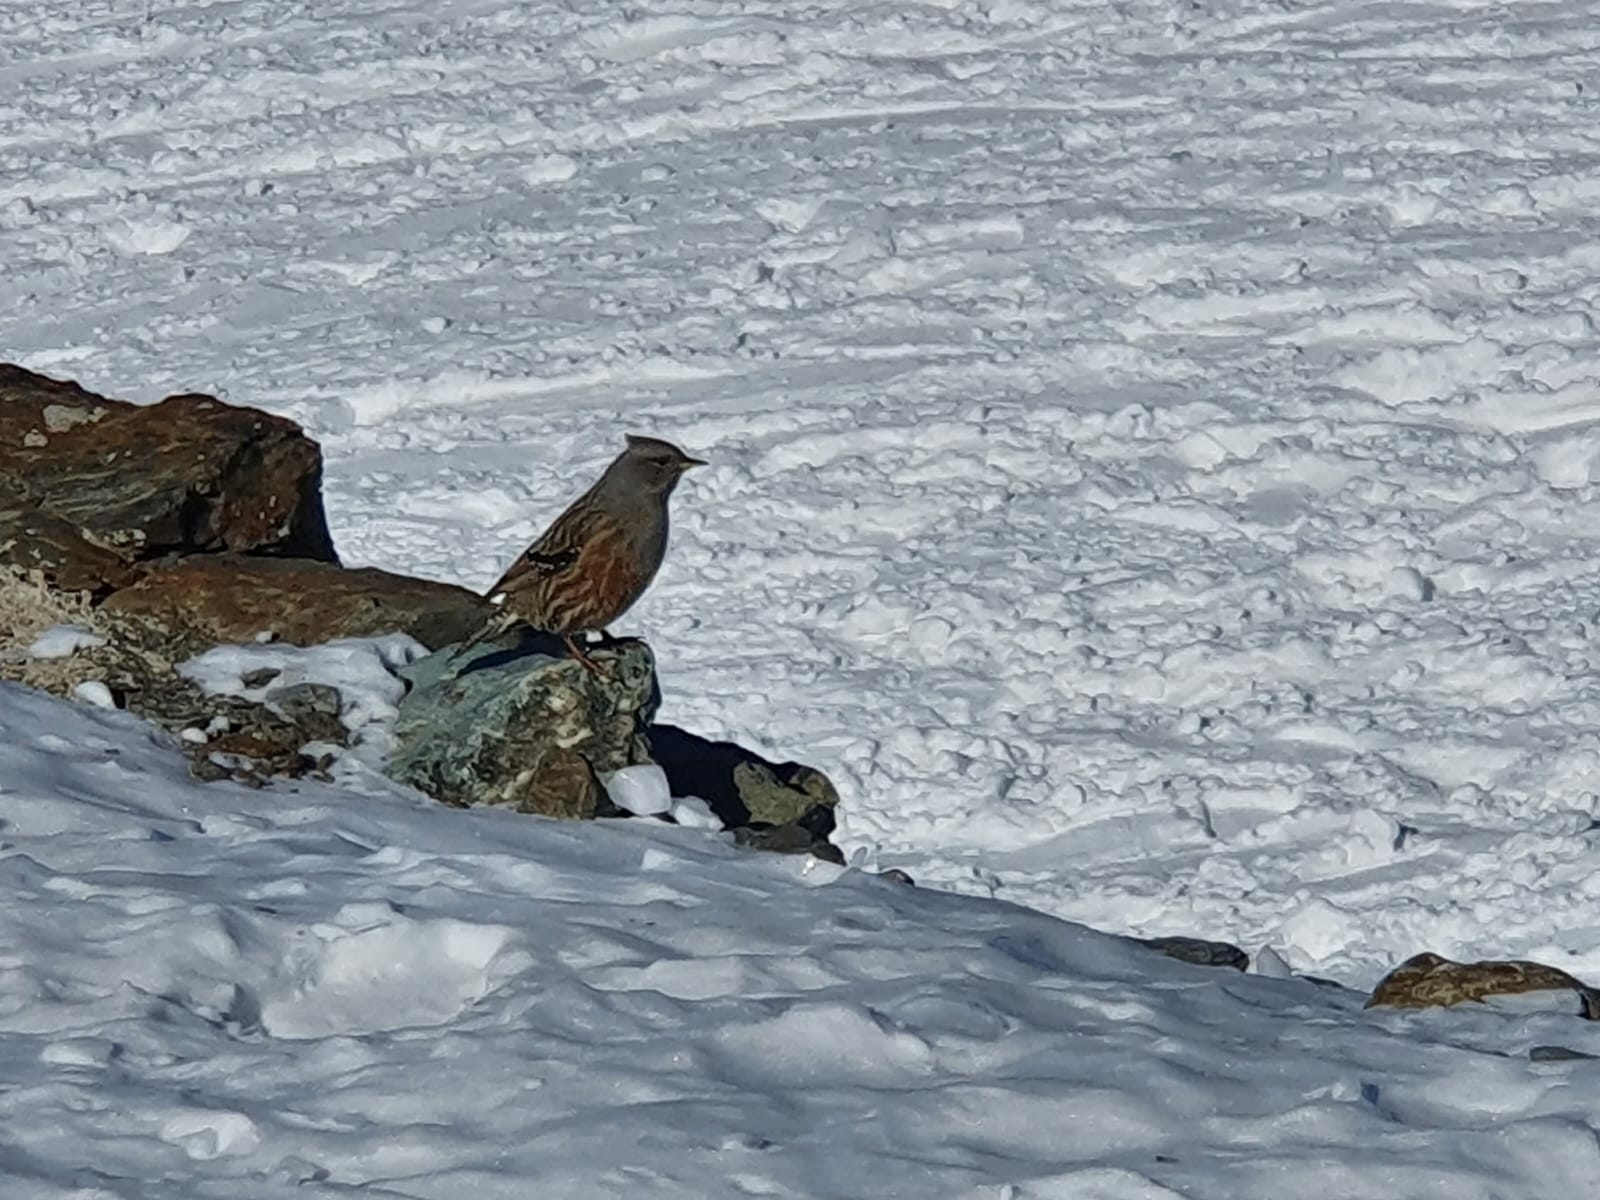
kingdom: Animalia
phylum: Chordata
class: Aves
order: Passeriformes
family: Prunellidae
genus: Prunella
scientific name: Prunella collaris
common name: Alpine accentor
